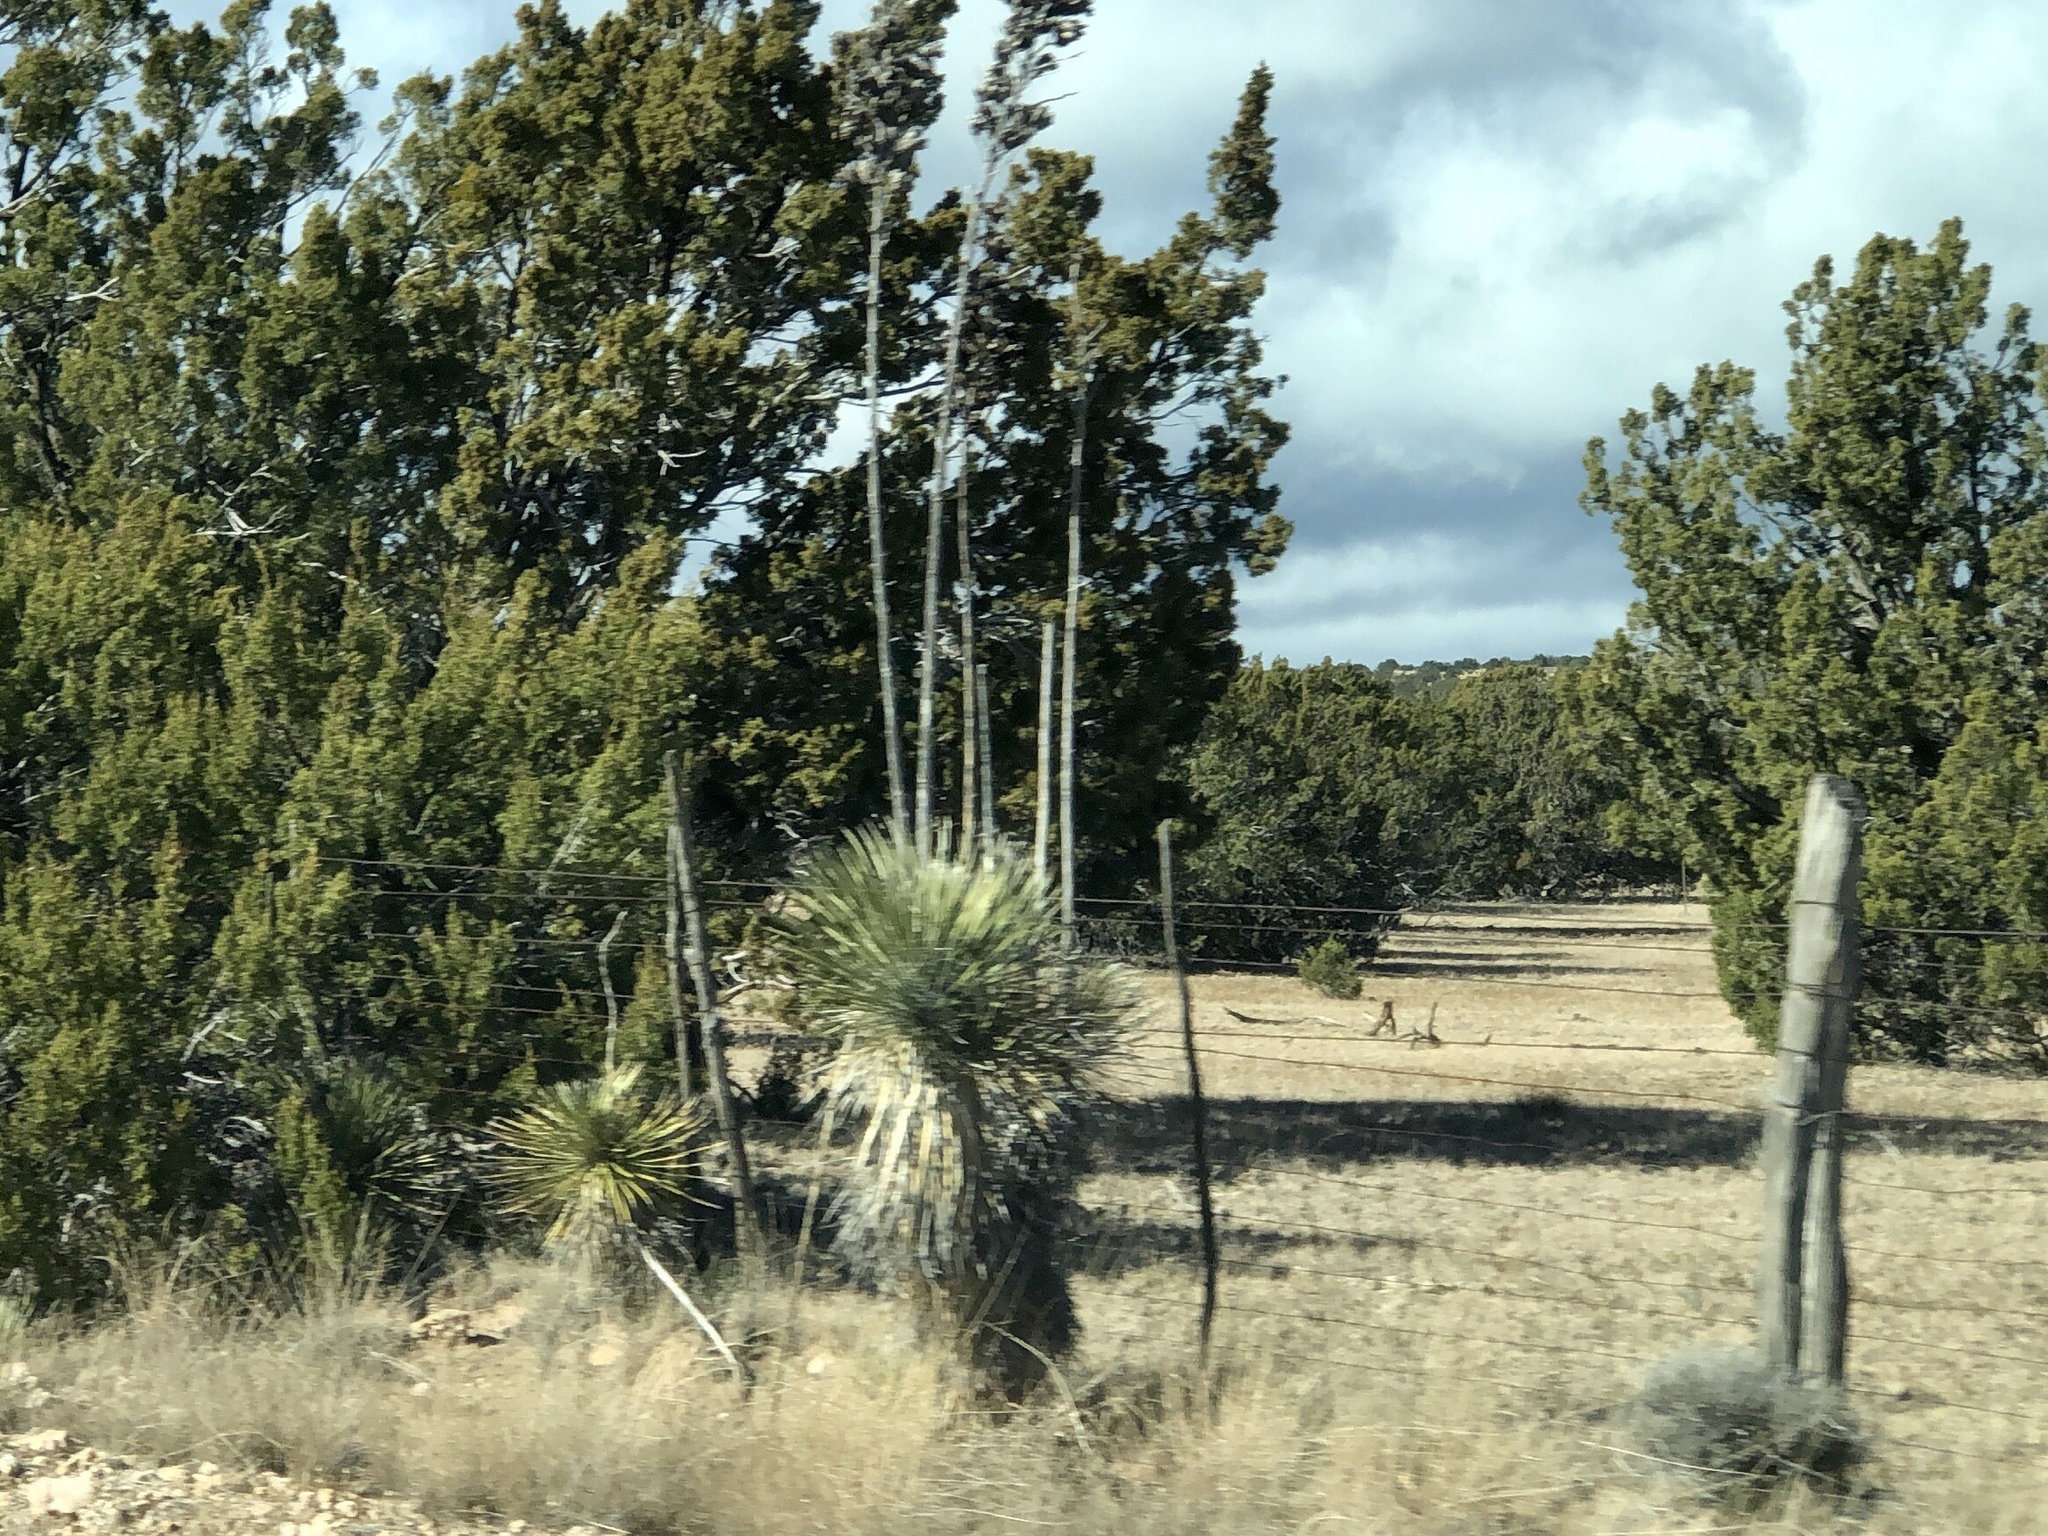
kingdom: Plantae
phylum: Tracheophyta
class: Liliopsida
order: Asparagales
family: Asparagaceae
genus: Yucca
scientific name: Yucca elata
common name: Palmella
